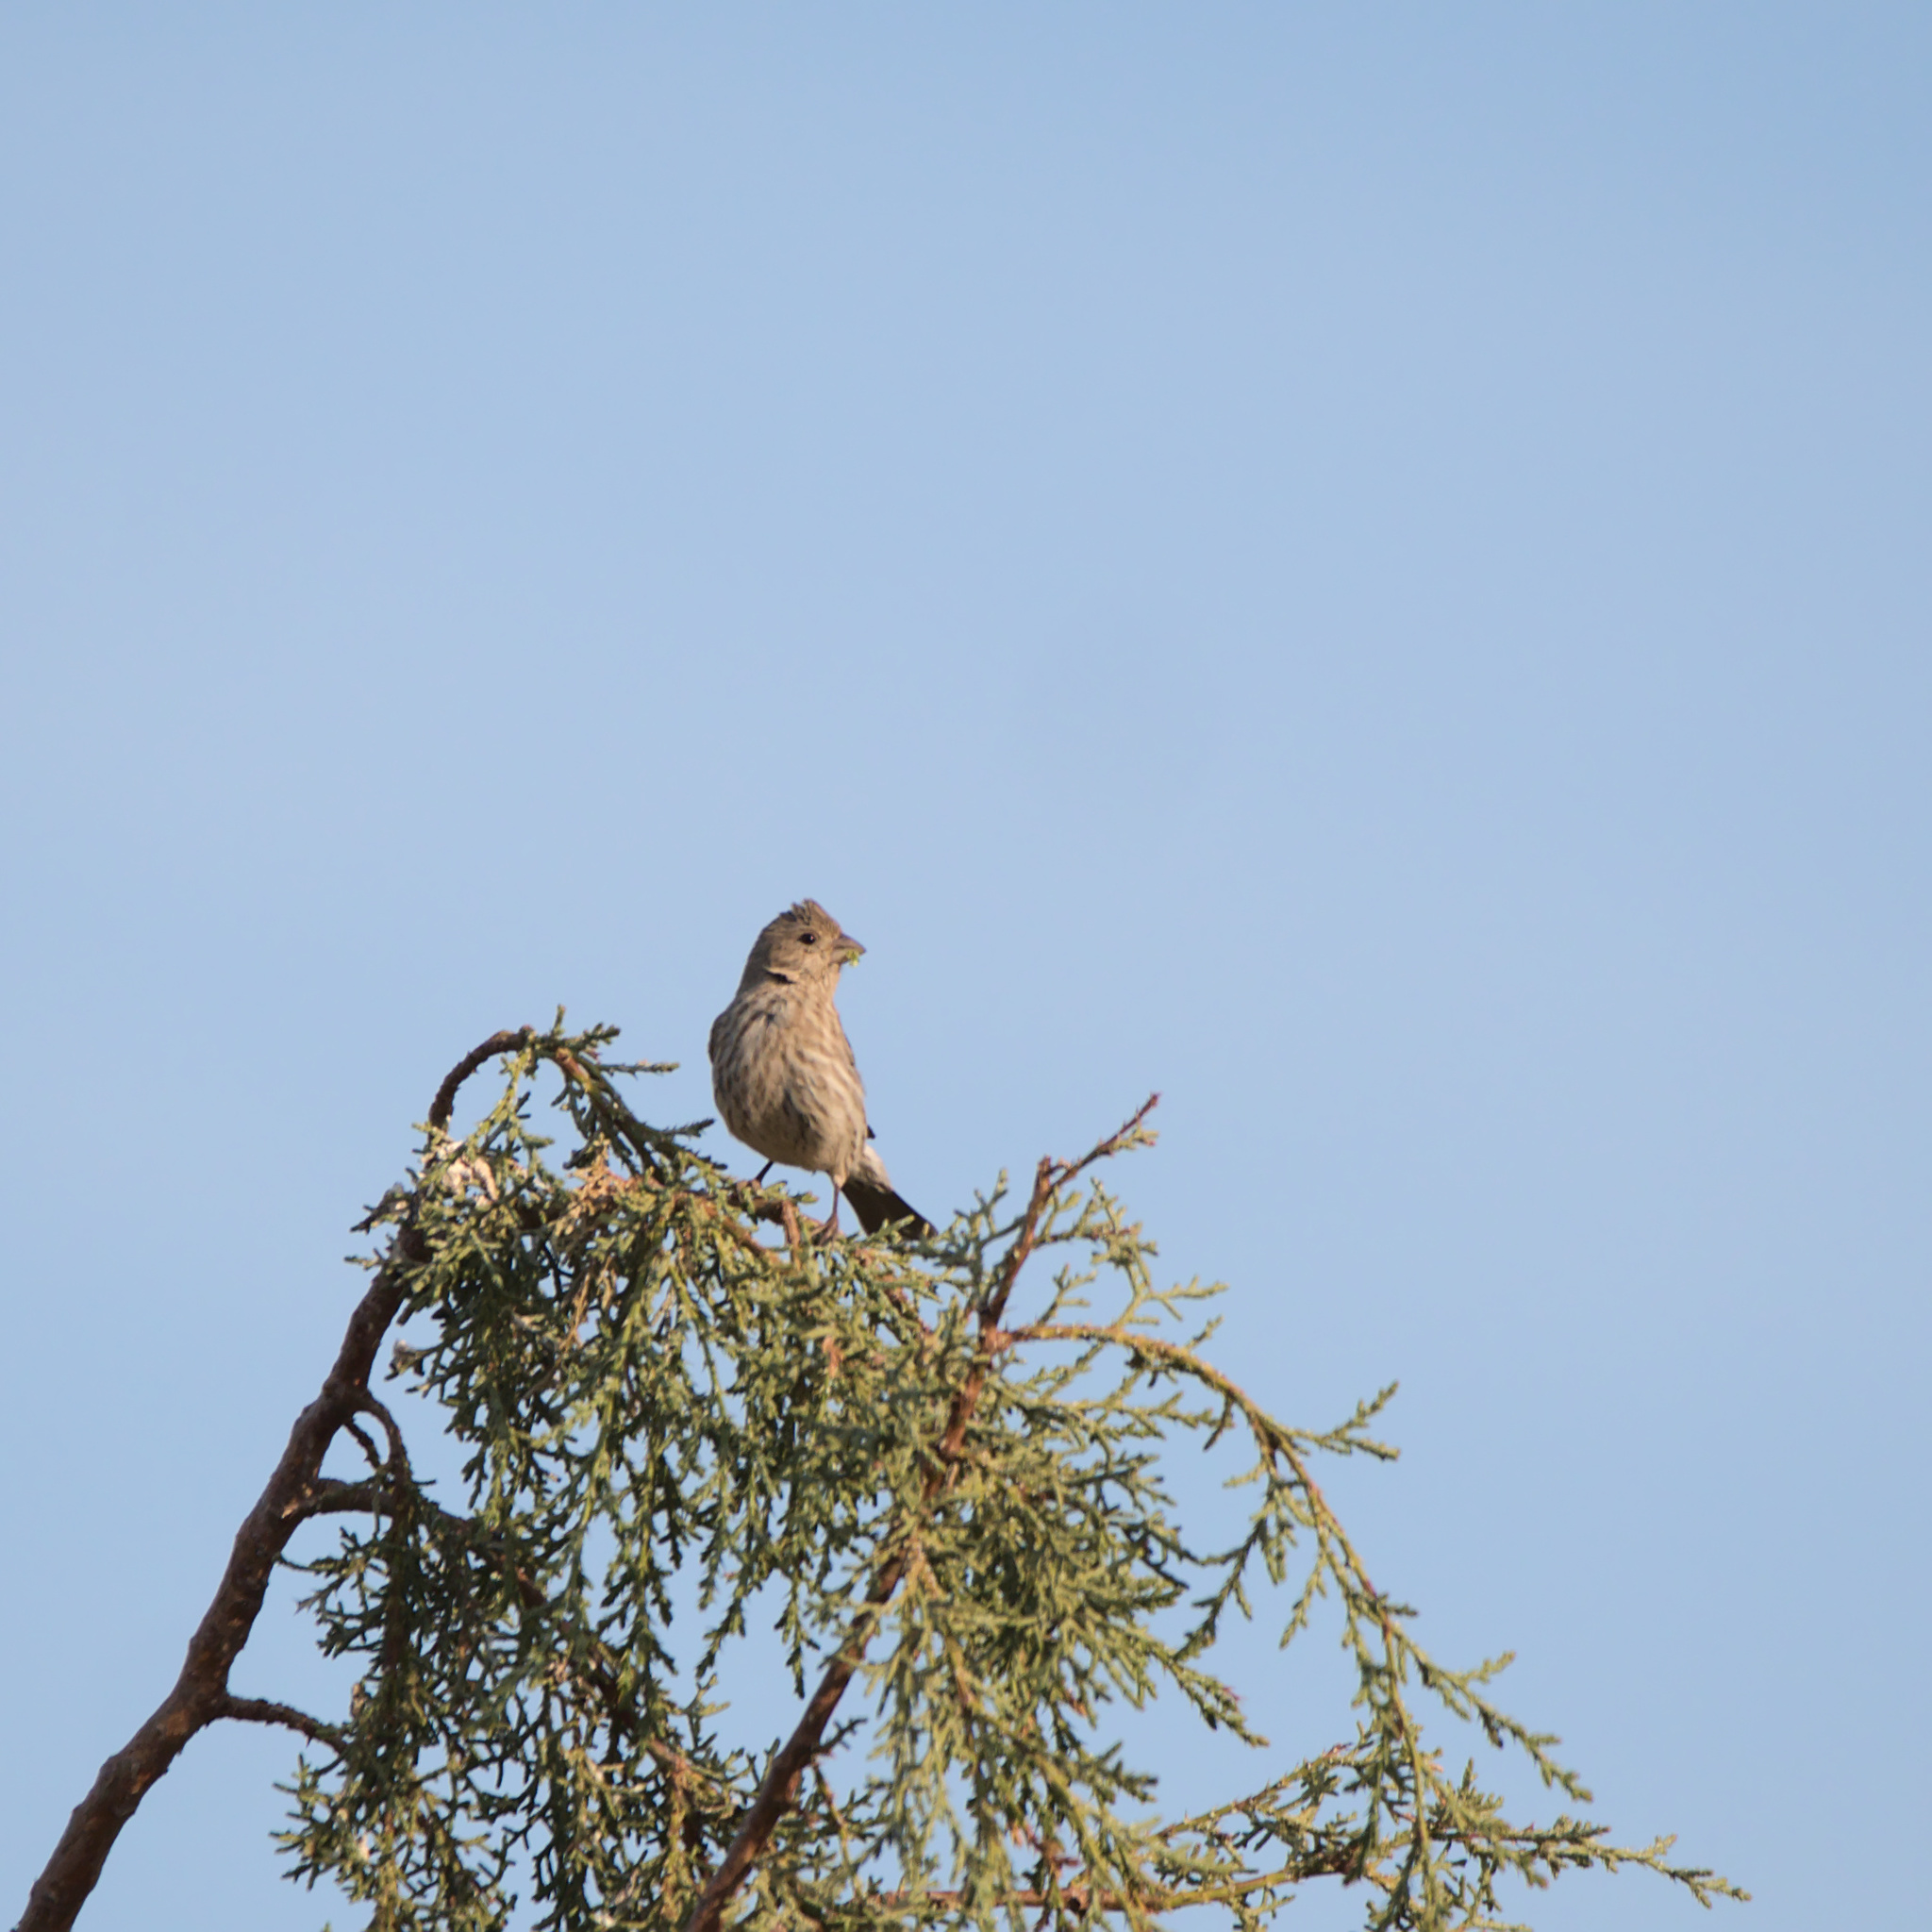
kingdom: Animalia
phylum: Chordata
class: Aves
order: Passeriformes
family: Fringillidae
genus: Haemorhous
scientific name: Haemorhous mexicanus
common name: House finch
